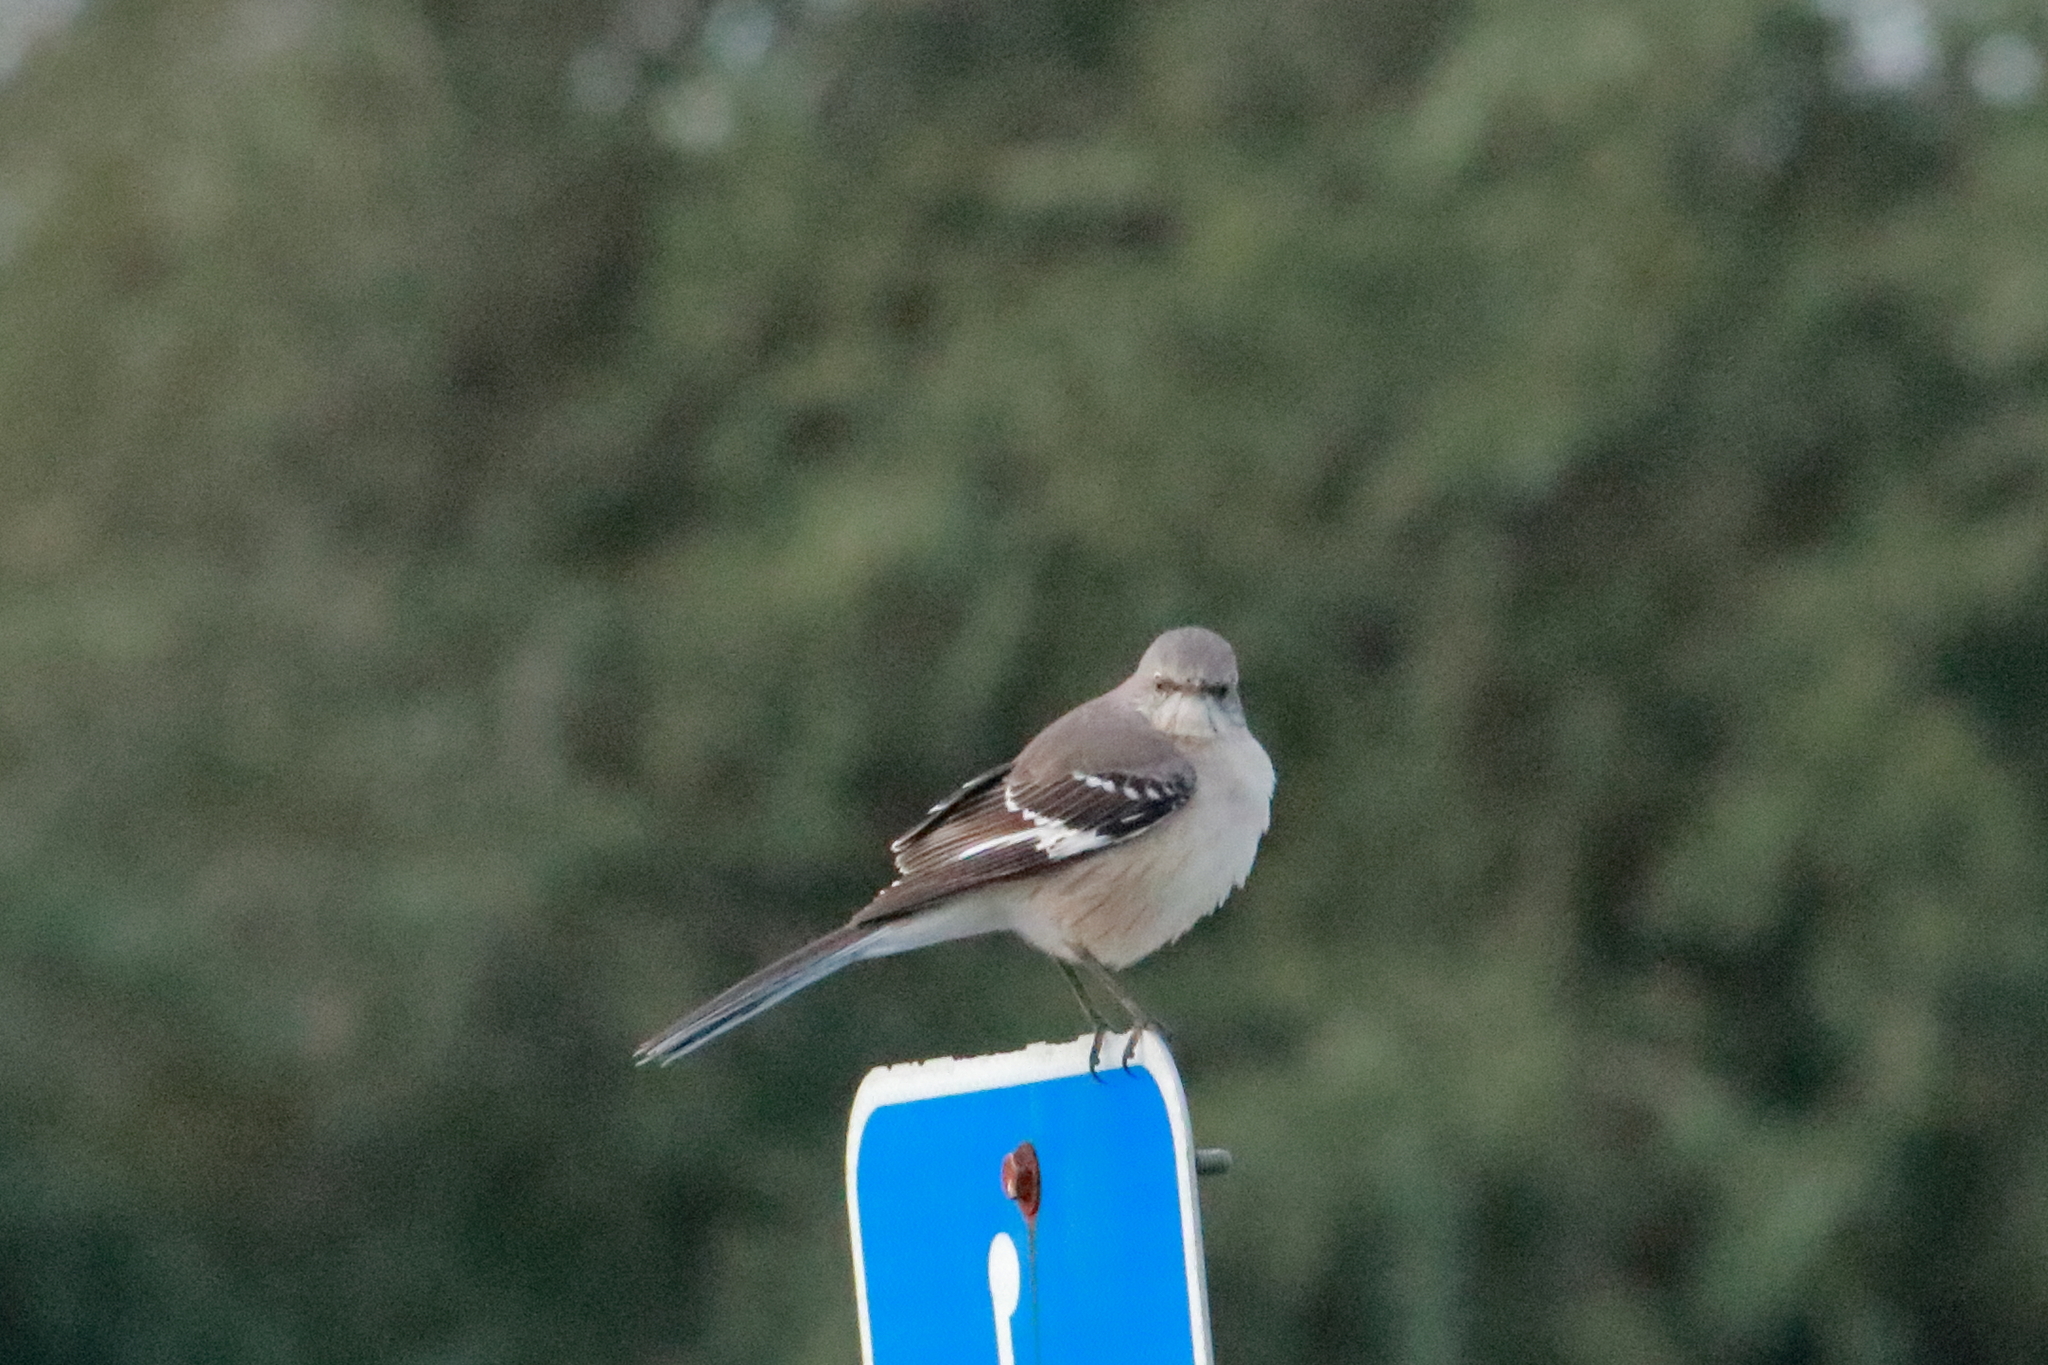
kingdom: Animalia
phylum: Chordata
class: Aves
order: Passeriformes
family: Mimidae
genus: Mimus
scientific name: Mimus polyglottos
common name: Northern mockingbird
